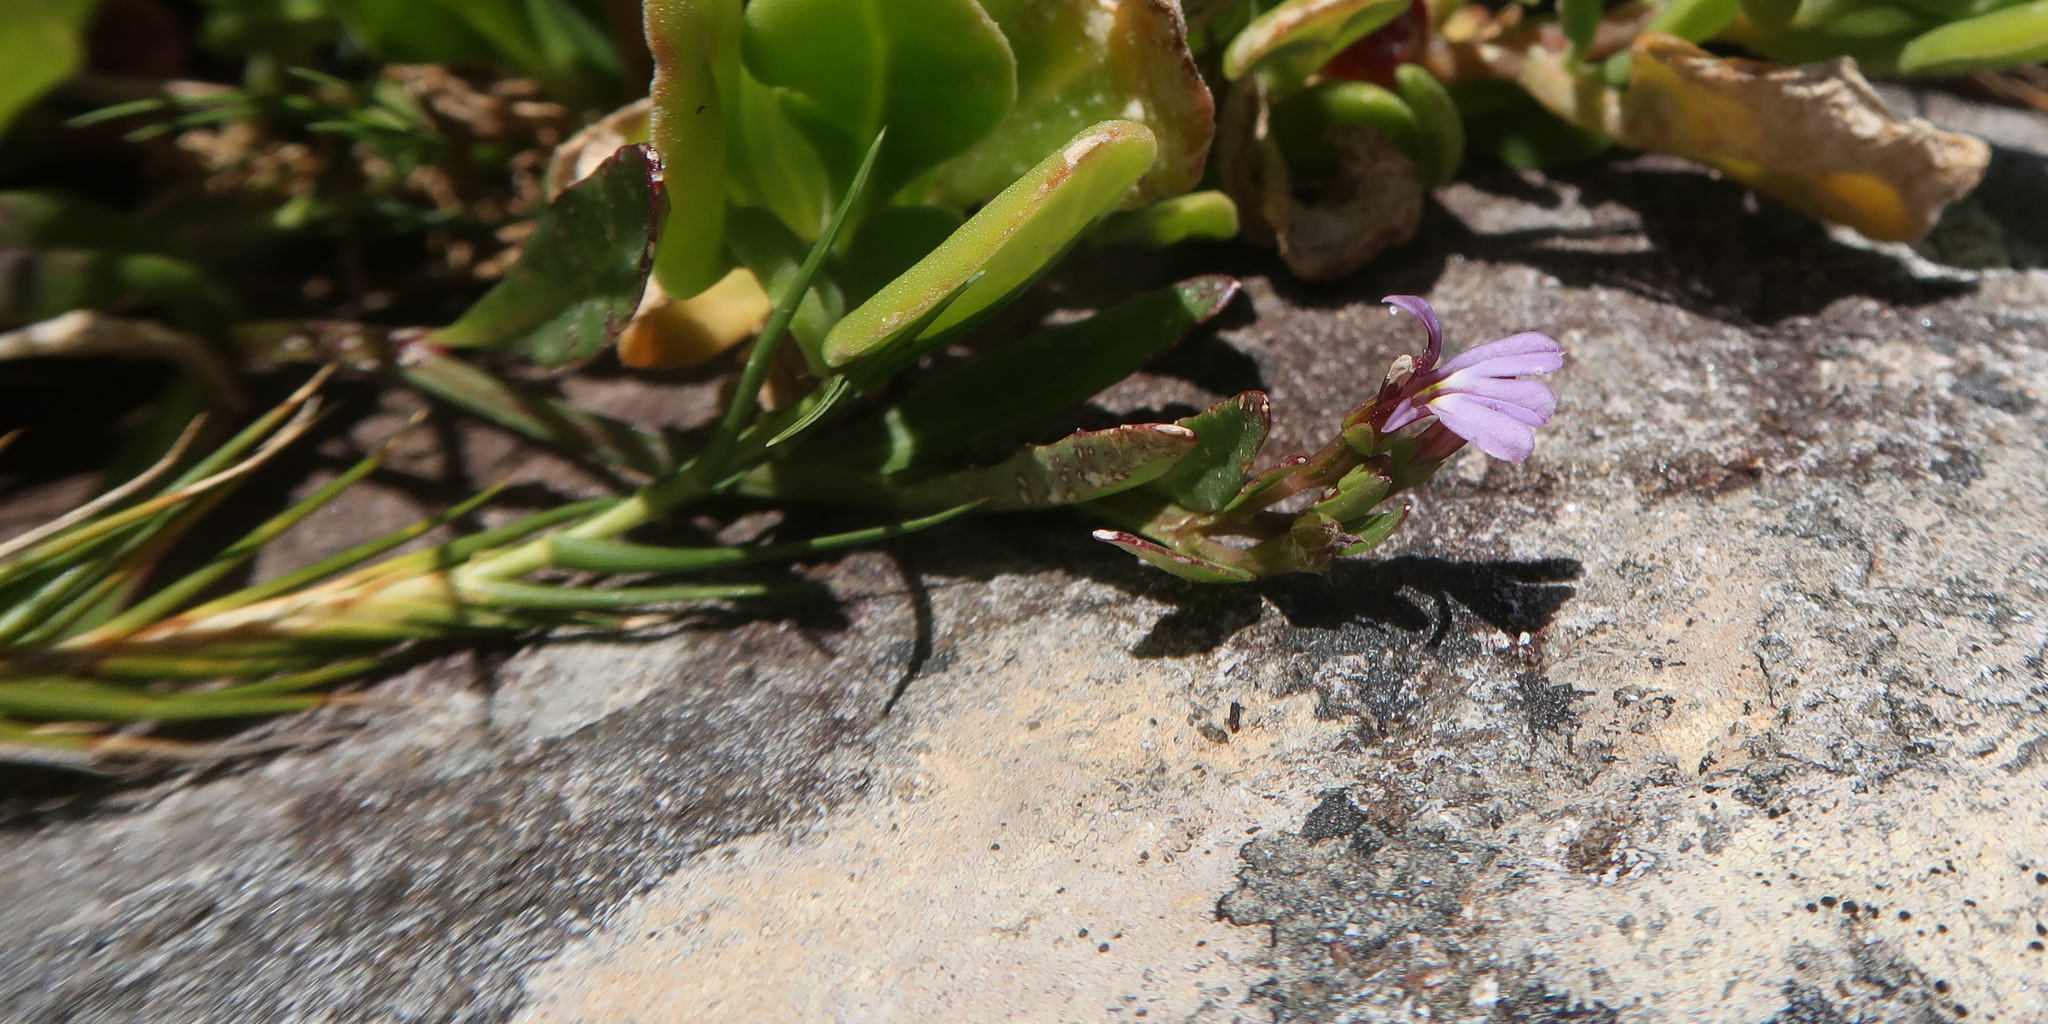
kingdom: Plantae
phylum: Tracheophyta
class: Magnoliopsida
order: Asterales
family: Campanulaceae
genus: Lobelia
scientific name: Lobelia anceps
